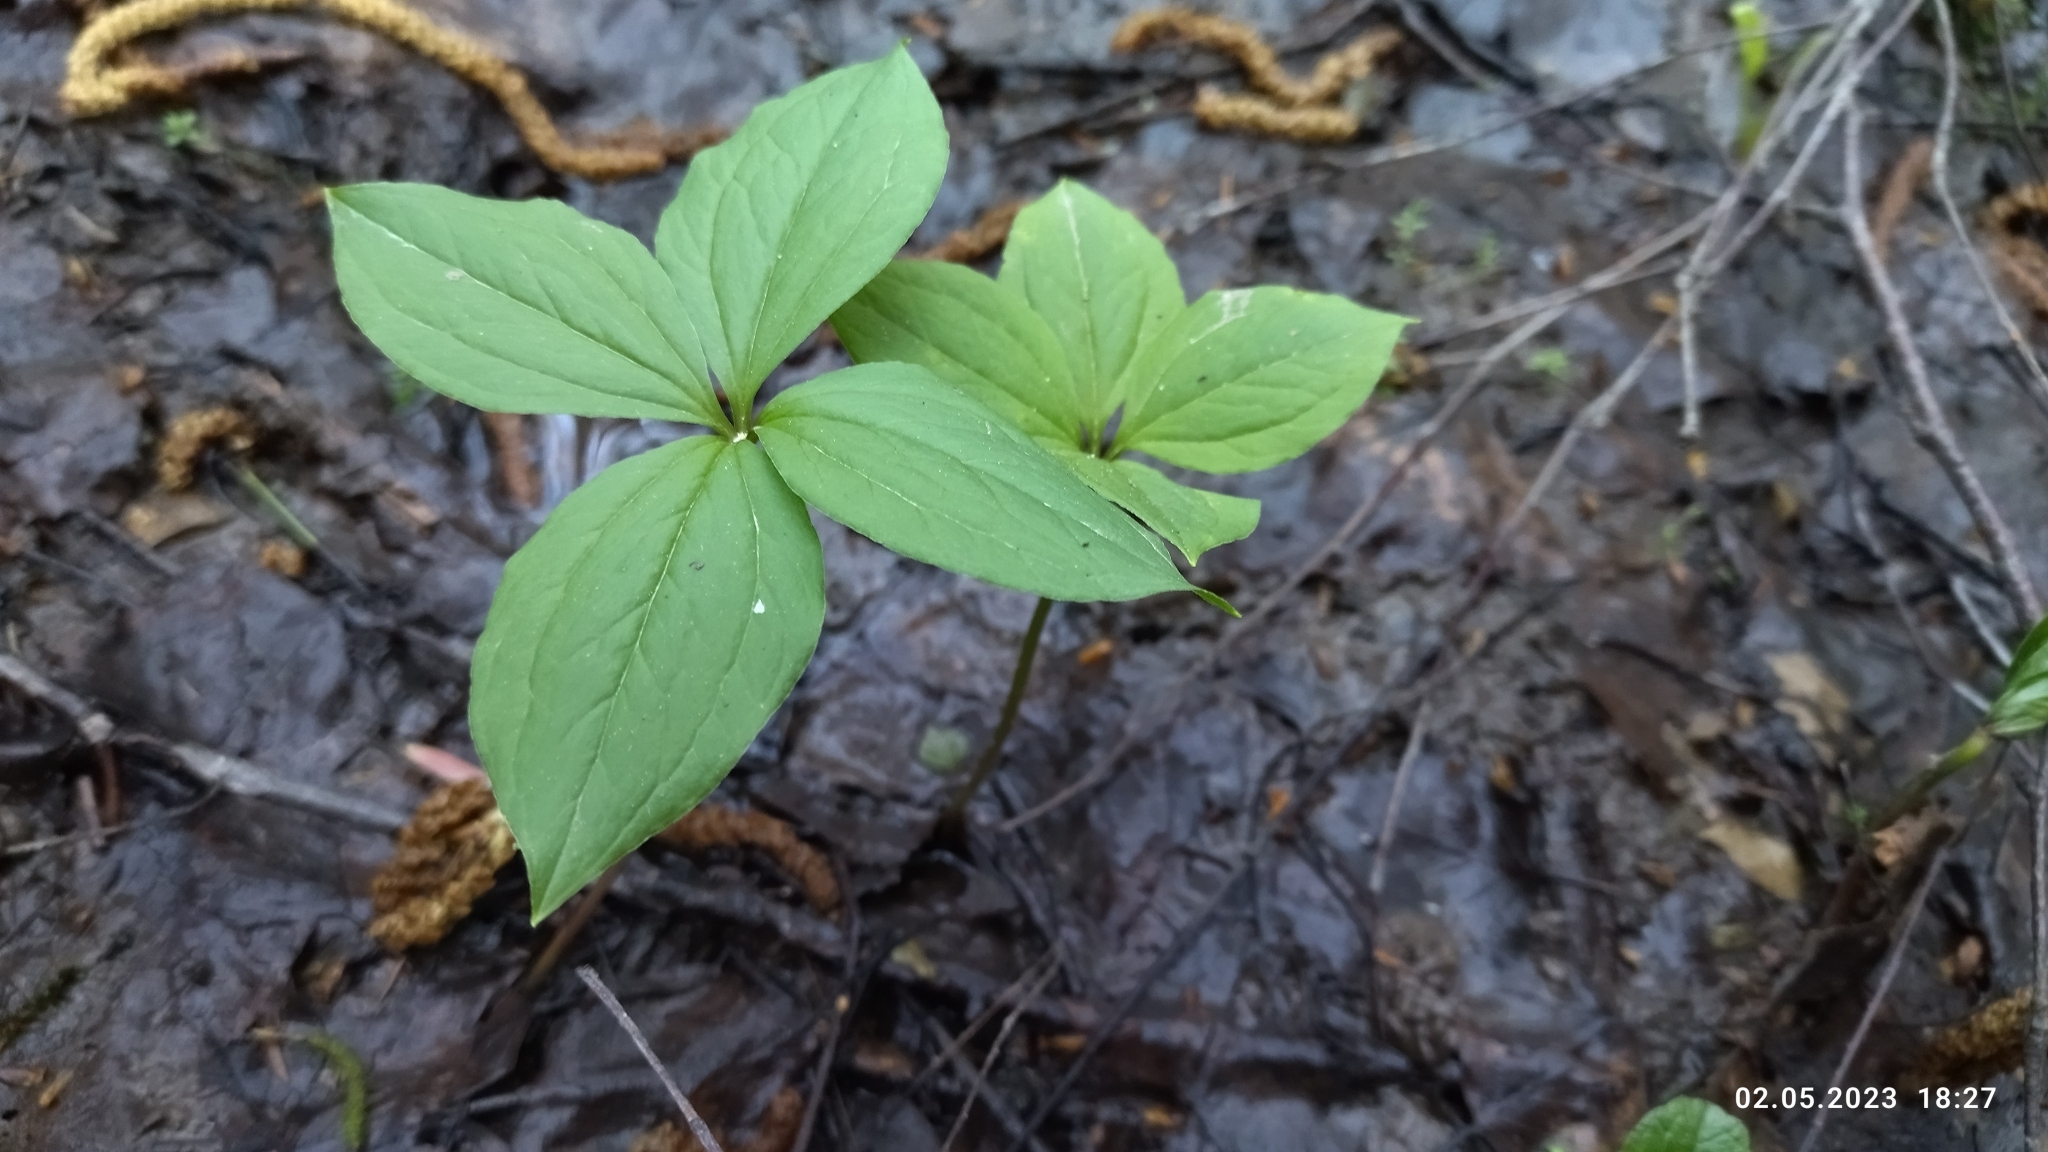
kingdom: Plantae
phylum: Tracheophyta
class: Liliopsida
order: Liliales
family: Melanthiaceae
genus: Paris
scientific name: Paris quadrifolia
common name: Herb-paris
